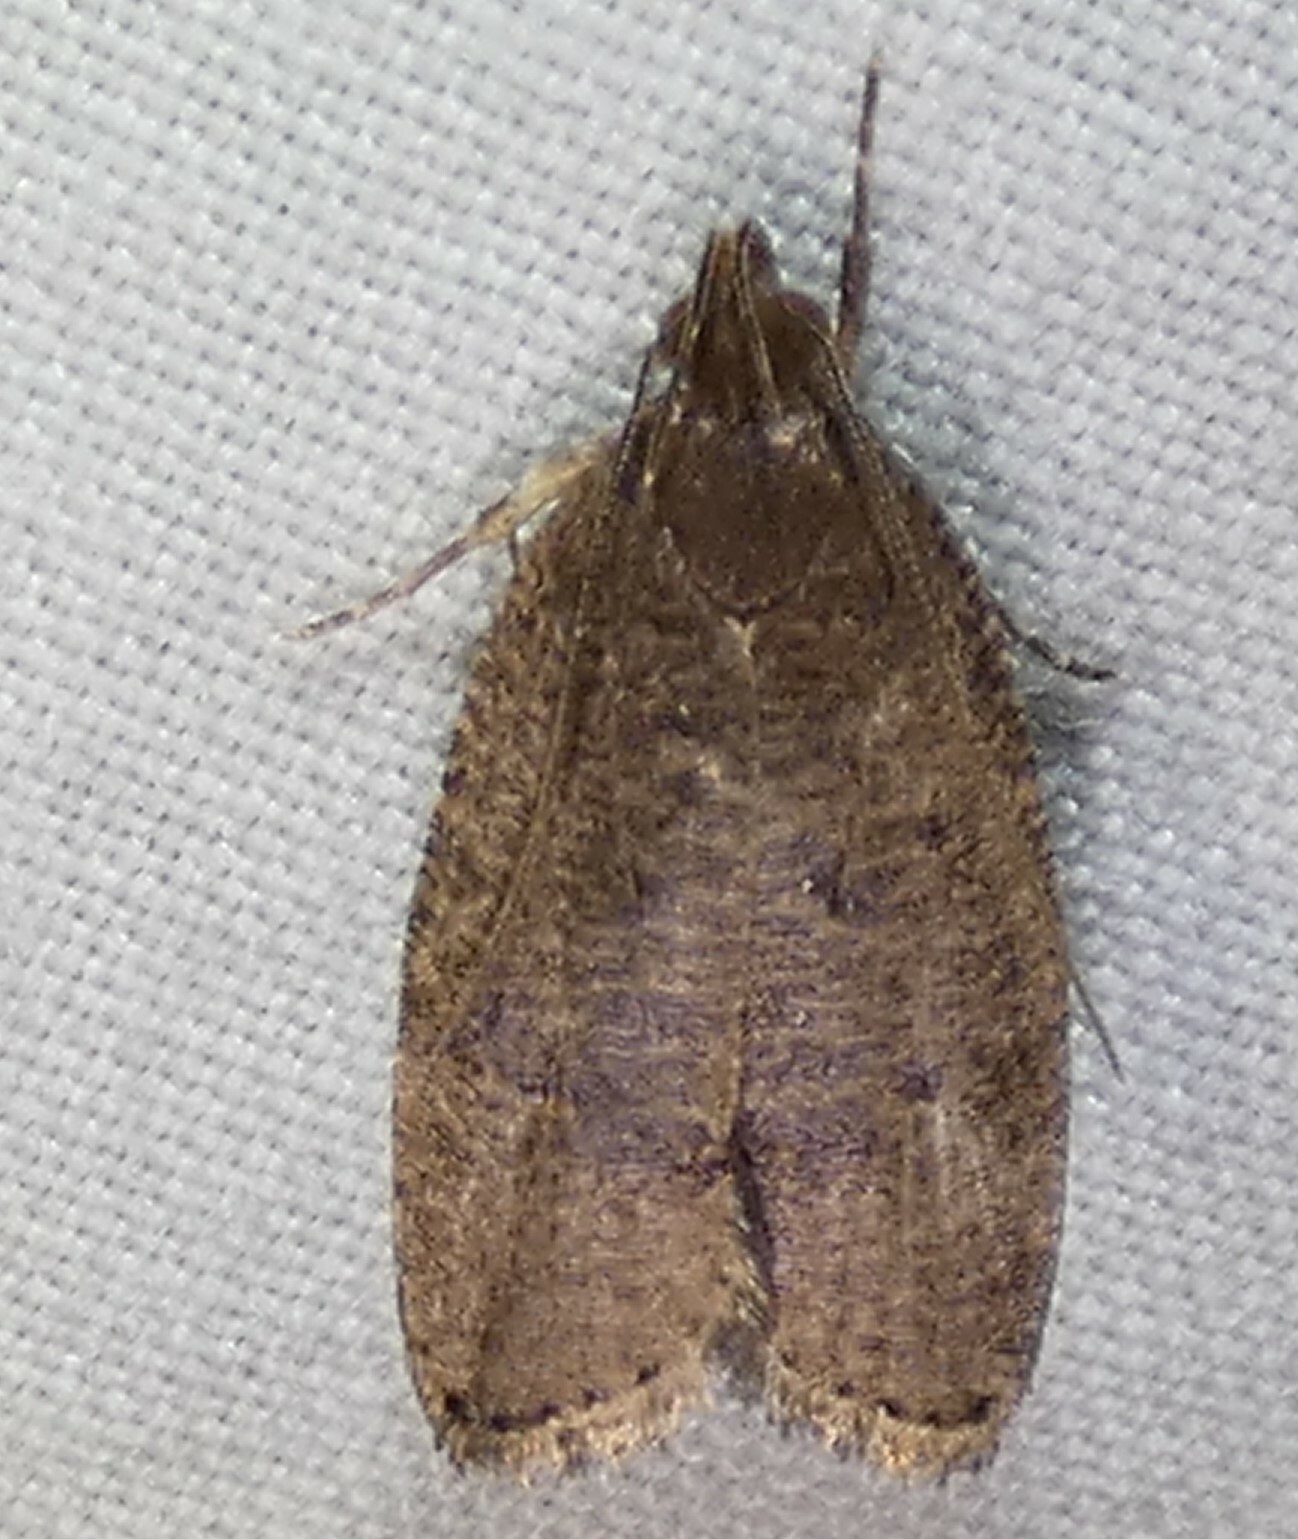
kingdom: Animalia
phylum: Arthropoda
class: Insecta
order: Lepidoptera
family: Depressariidae
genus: Psilocorsis
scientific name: Psilocorsis reflexella
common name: Dotted leaftier moth
